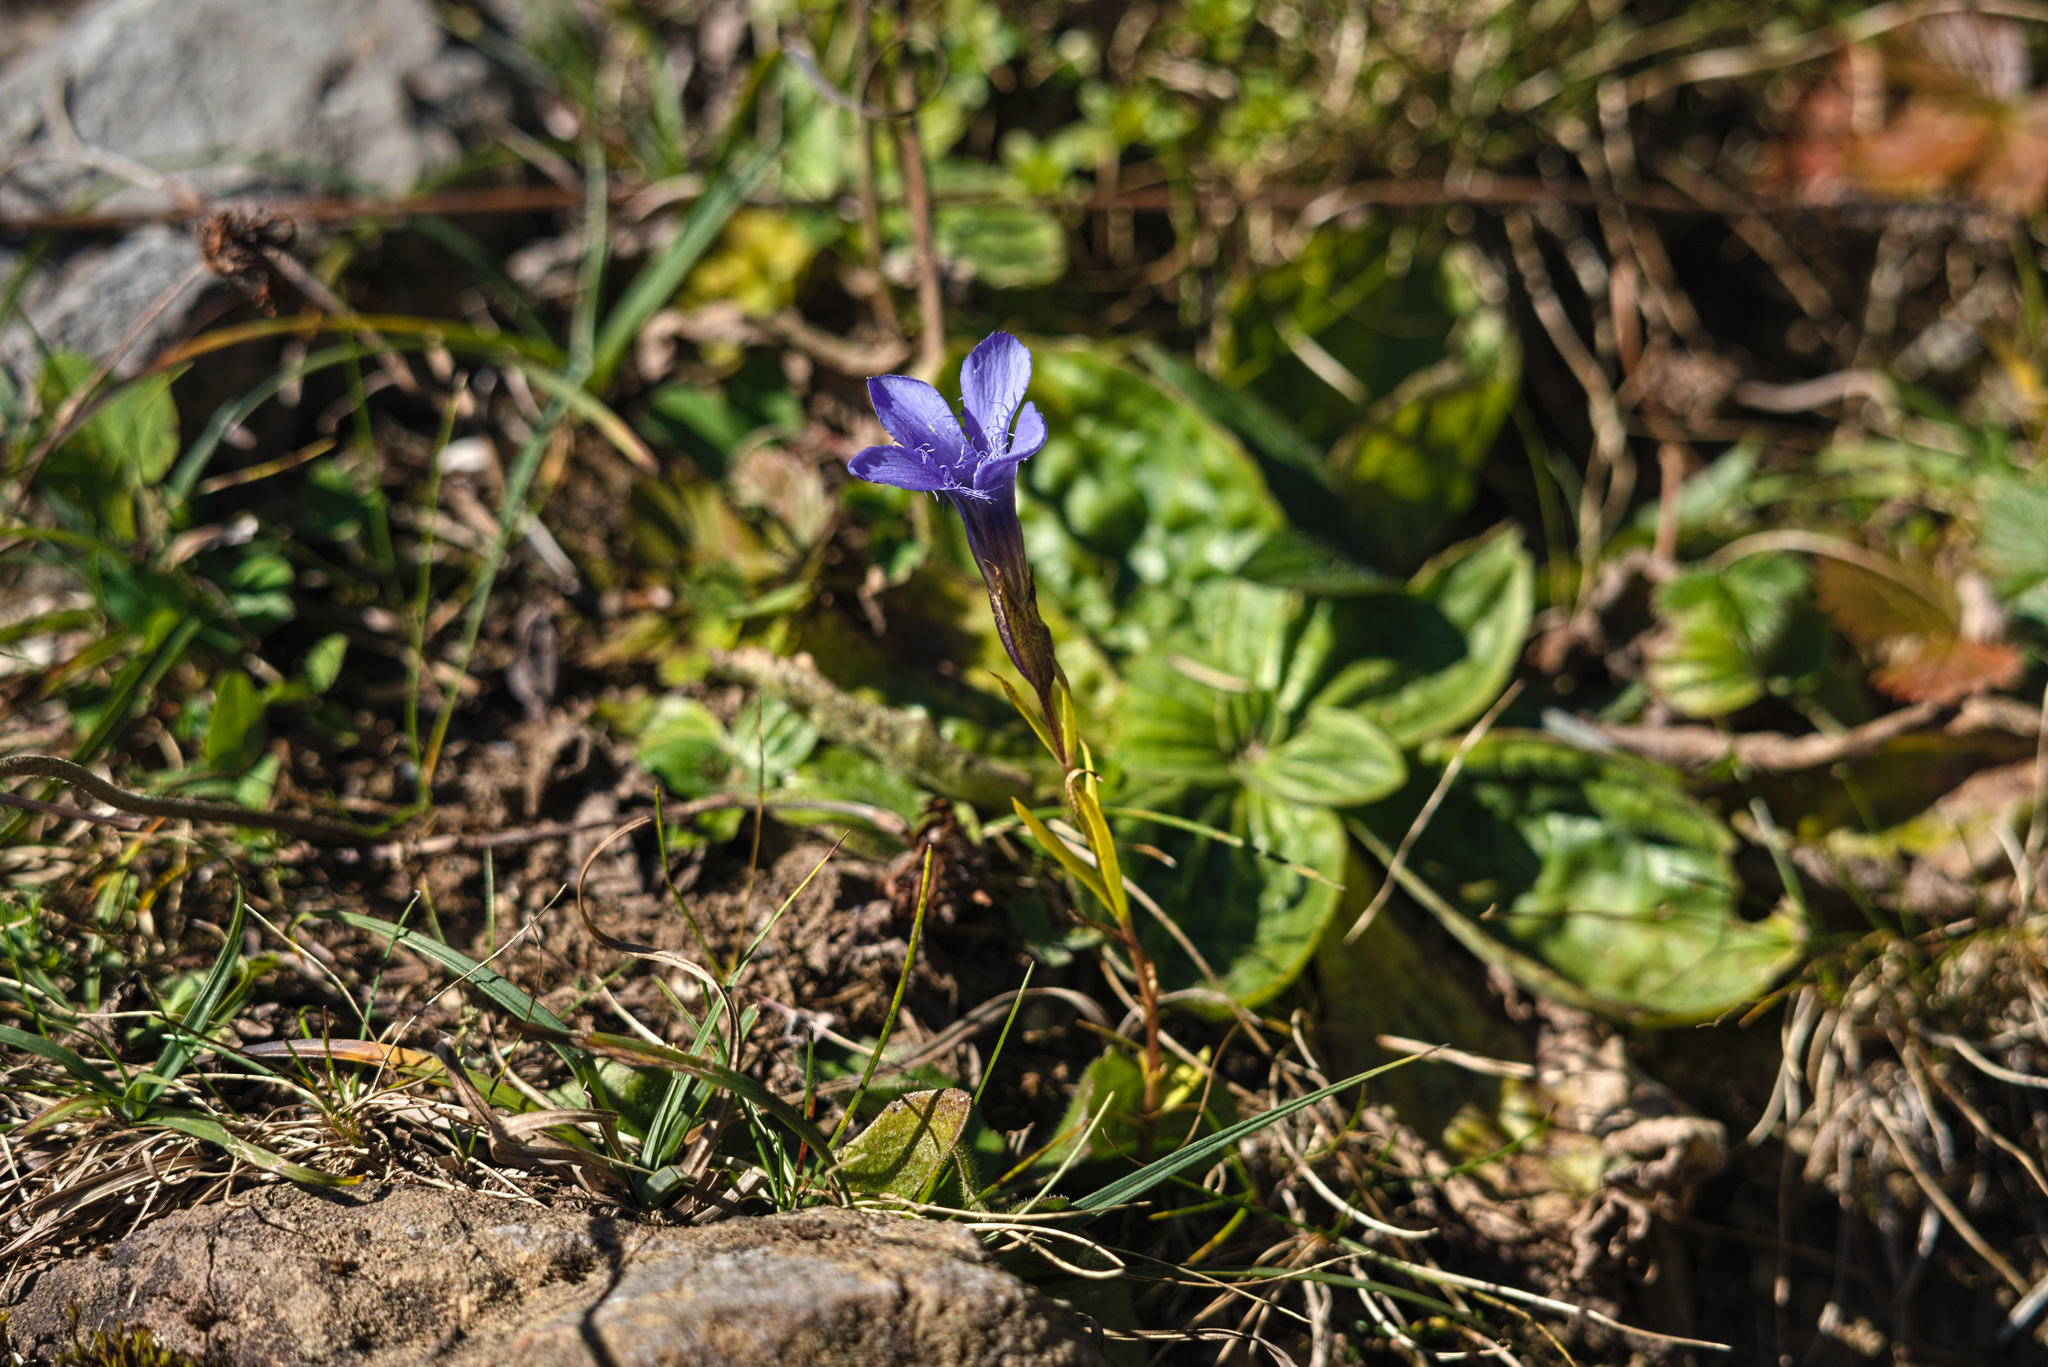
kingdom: Plantae
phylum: Tracheophyta
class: Magnoliopsida
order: Gentianales
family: Gentianaceae
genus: Gentianopsis
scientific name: Gentianopsis ciliata
